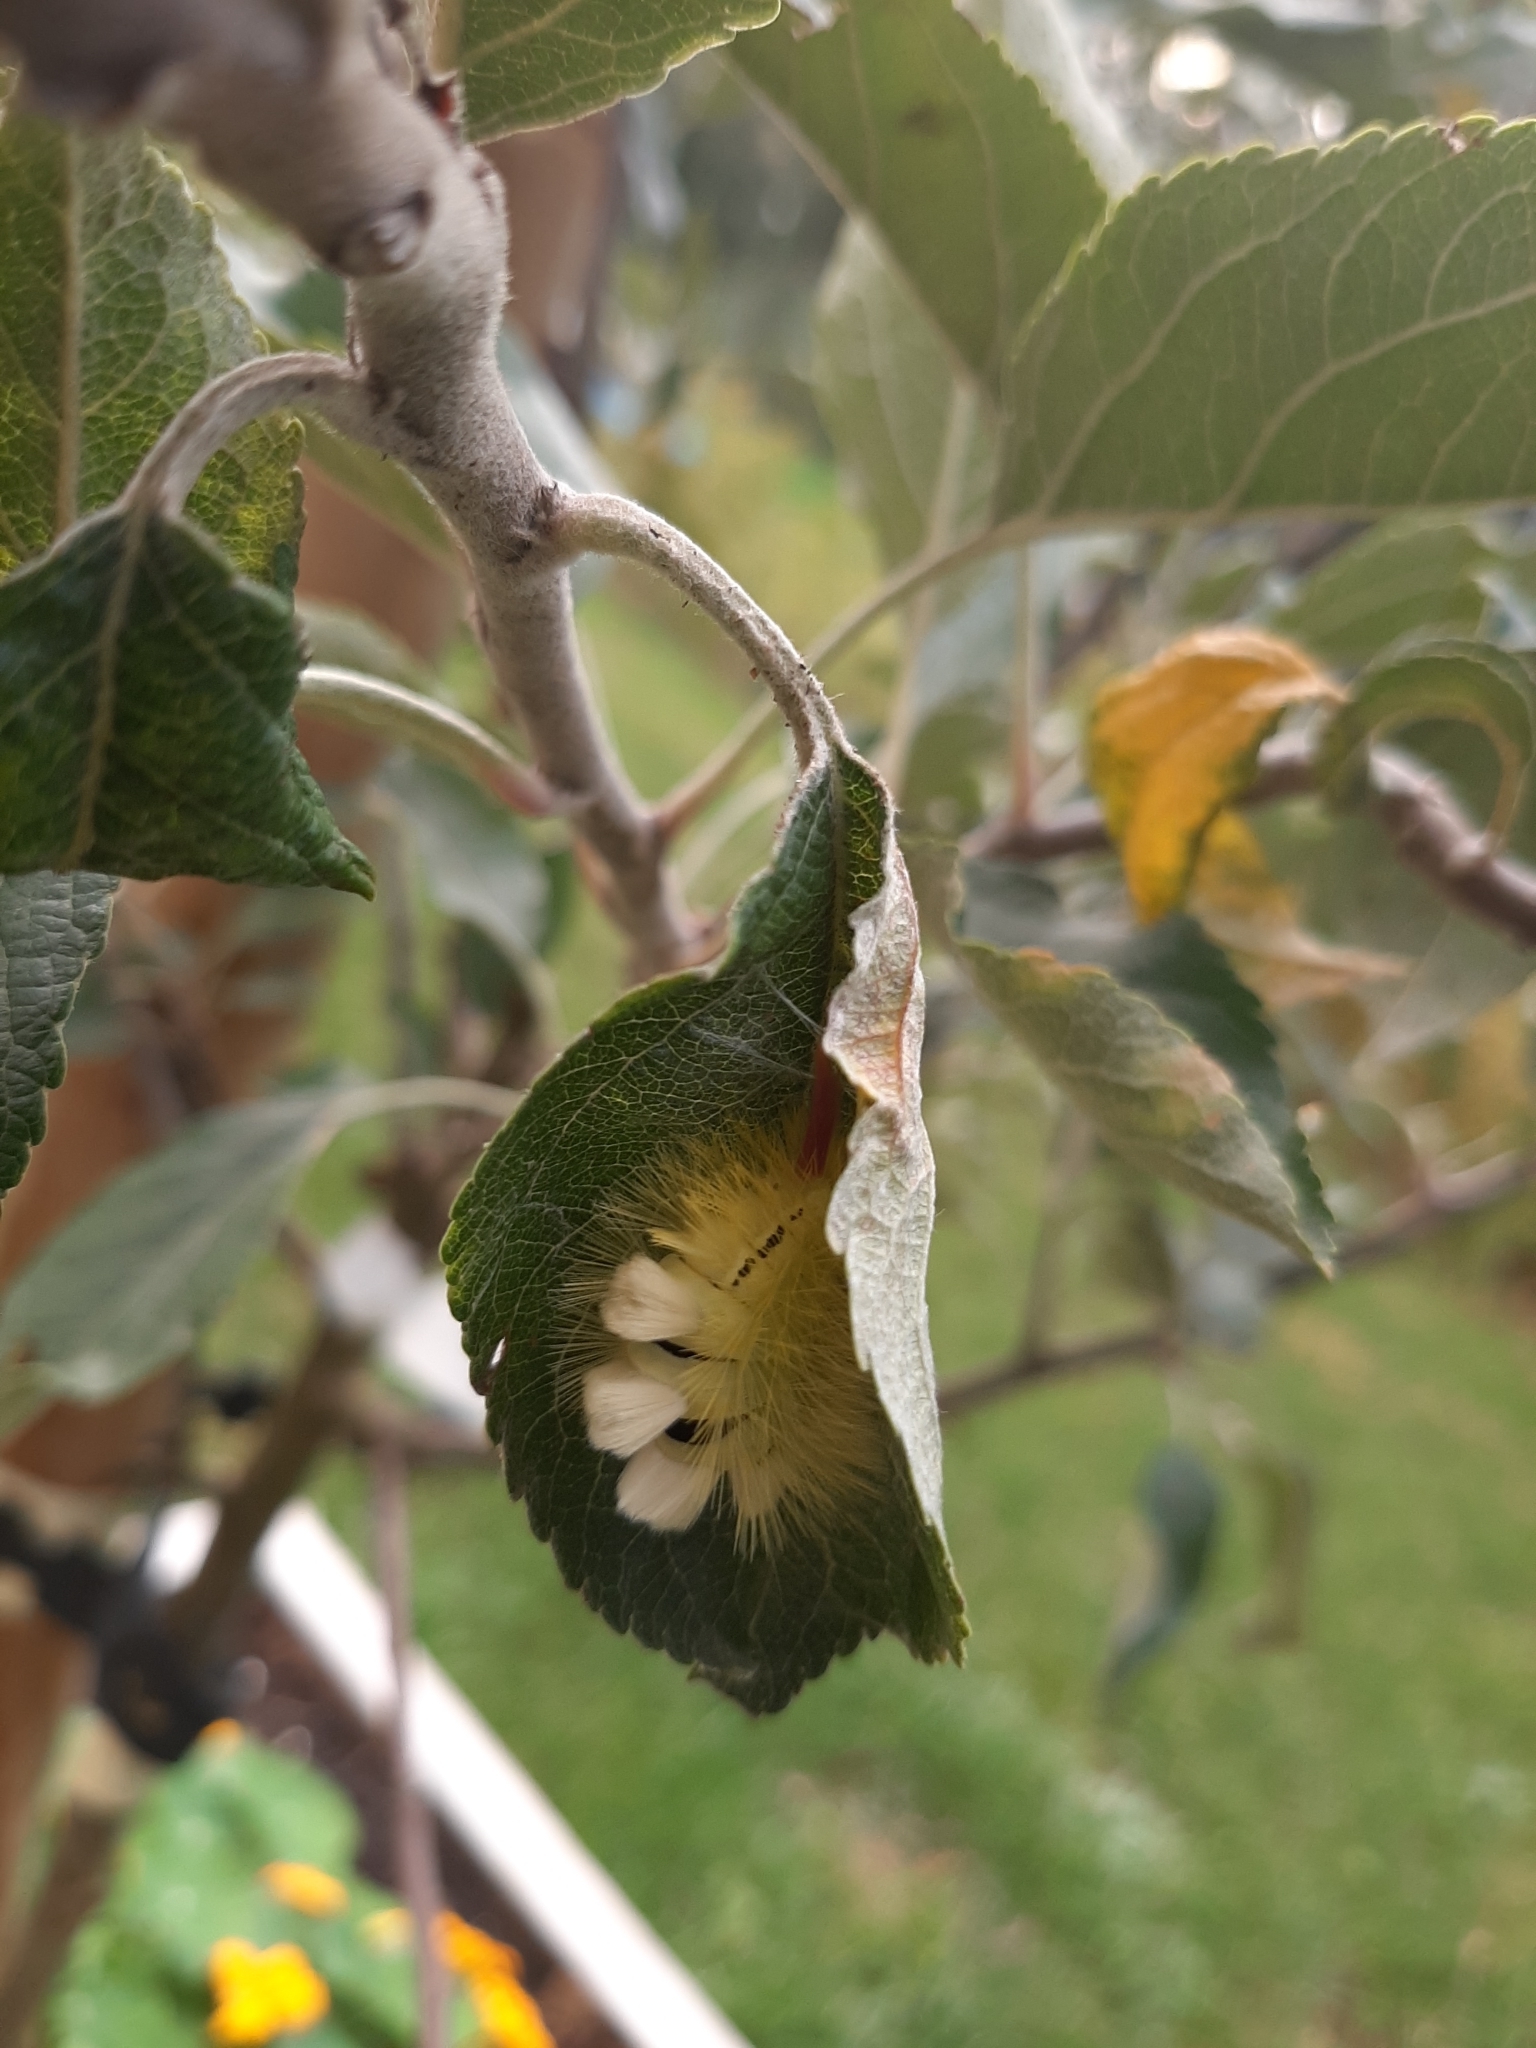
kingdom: Animalia
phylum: Arthropoda
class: Insecta
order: Lepidoptera
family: Erebidae
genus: Calliteara
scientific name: Calliteara pudibunda
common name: Pale tussock
